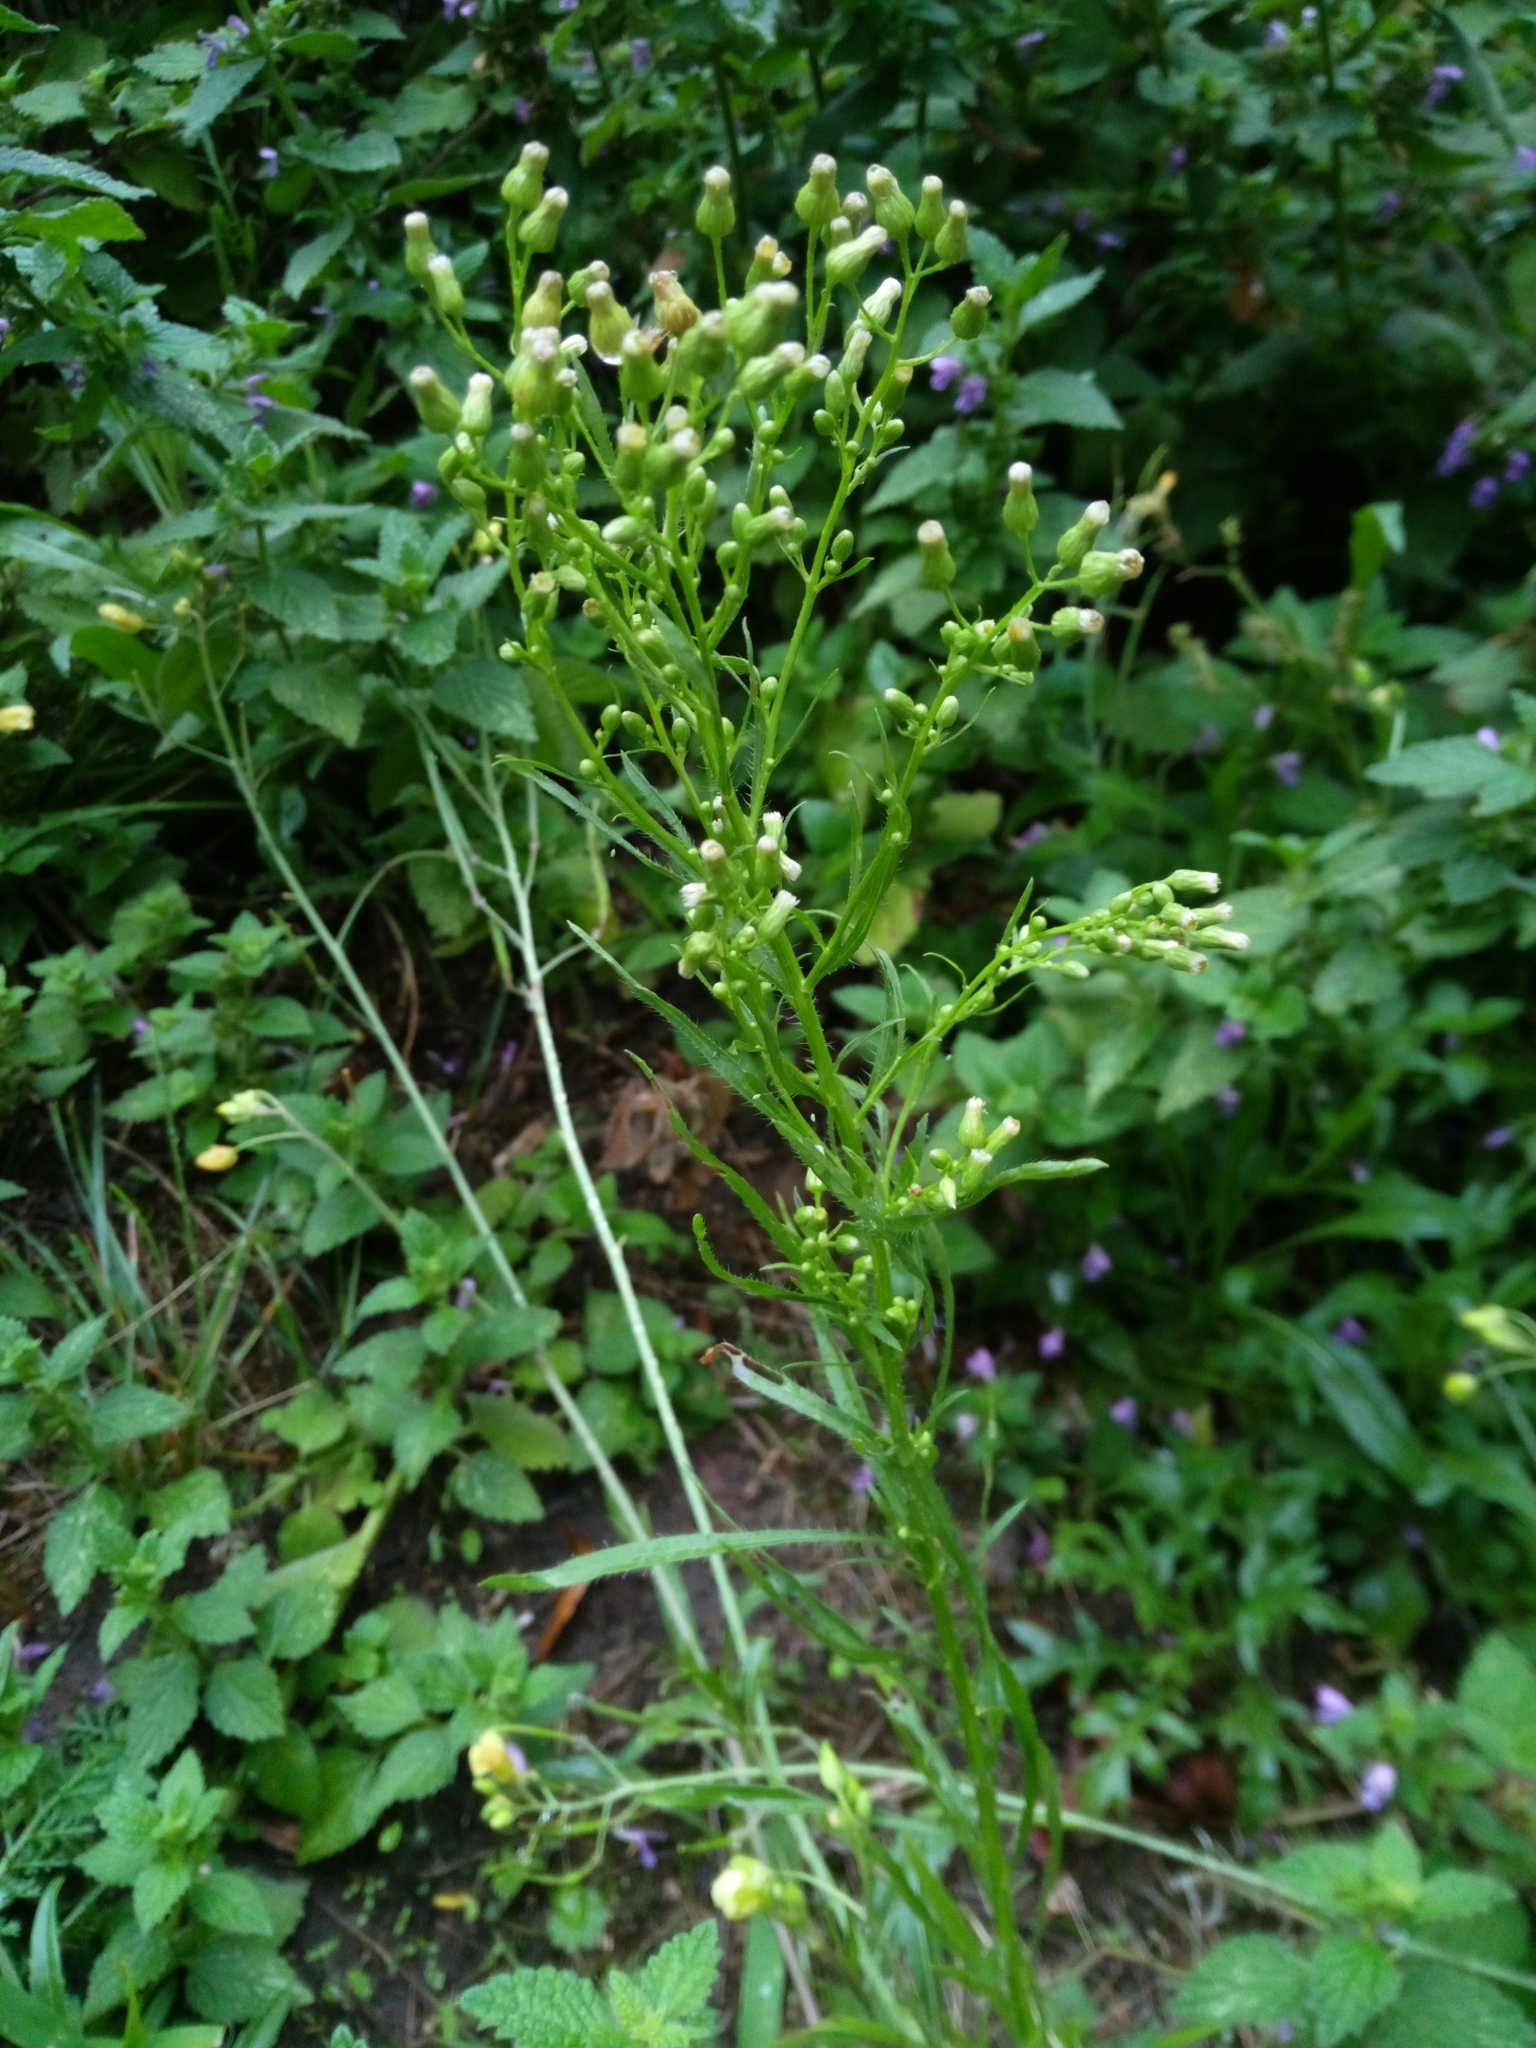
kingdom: Plantae
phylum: Tracheophyta
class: Magnoliopsida
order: Asterales
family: Asteraceae
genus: Erigeron
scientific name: Erigeron canadensis
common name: Canadian fleabane
